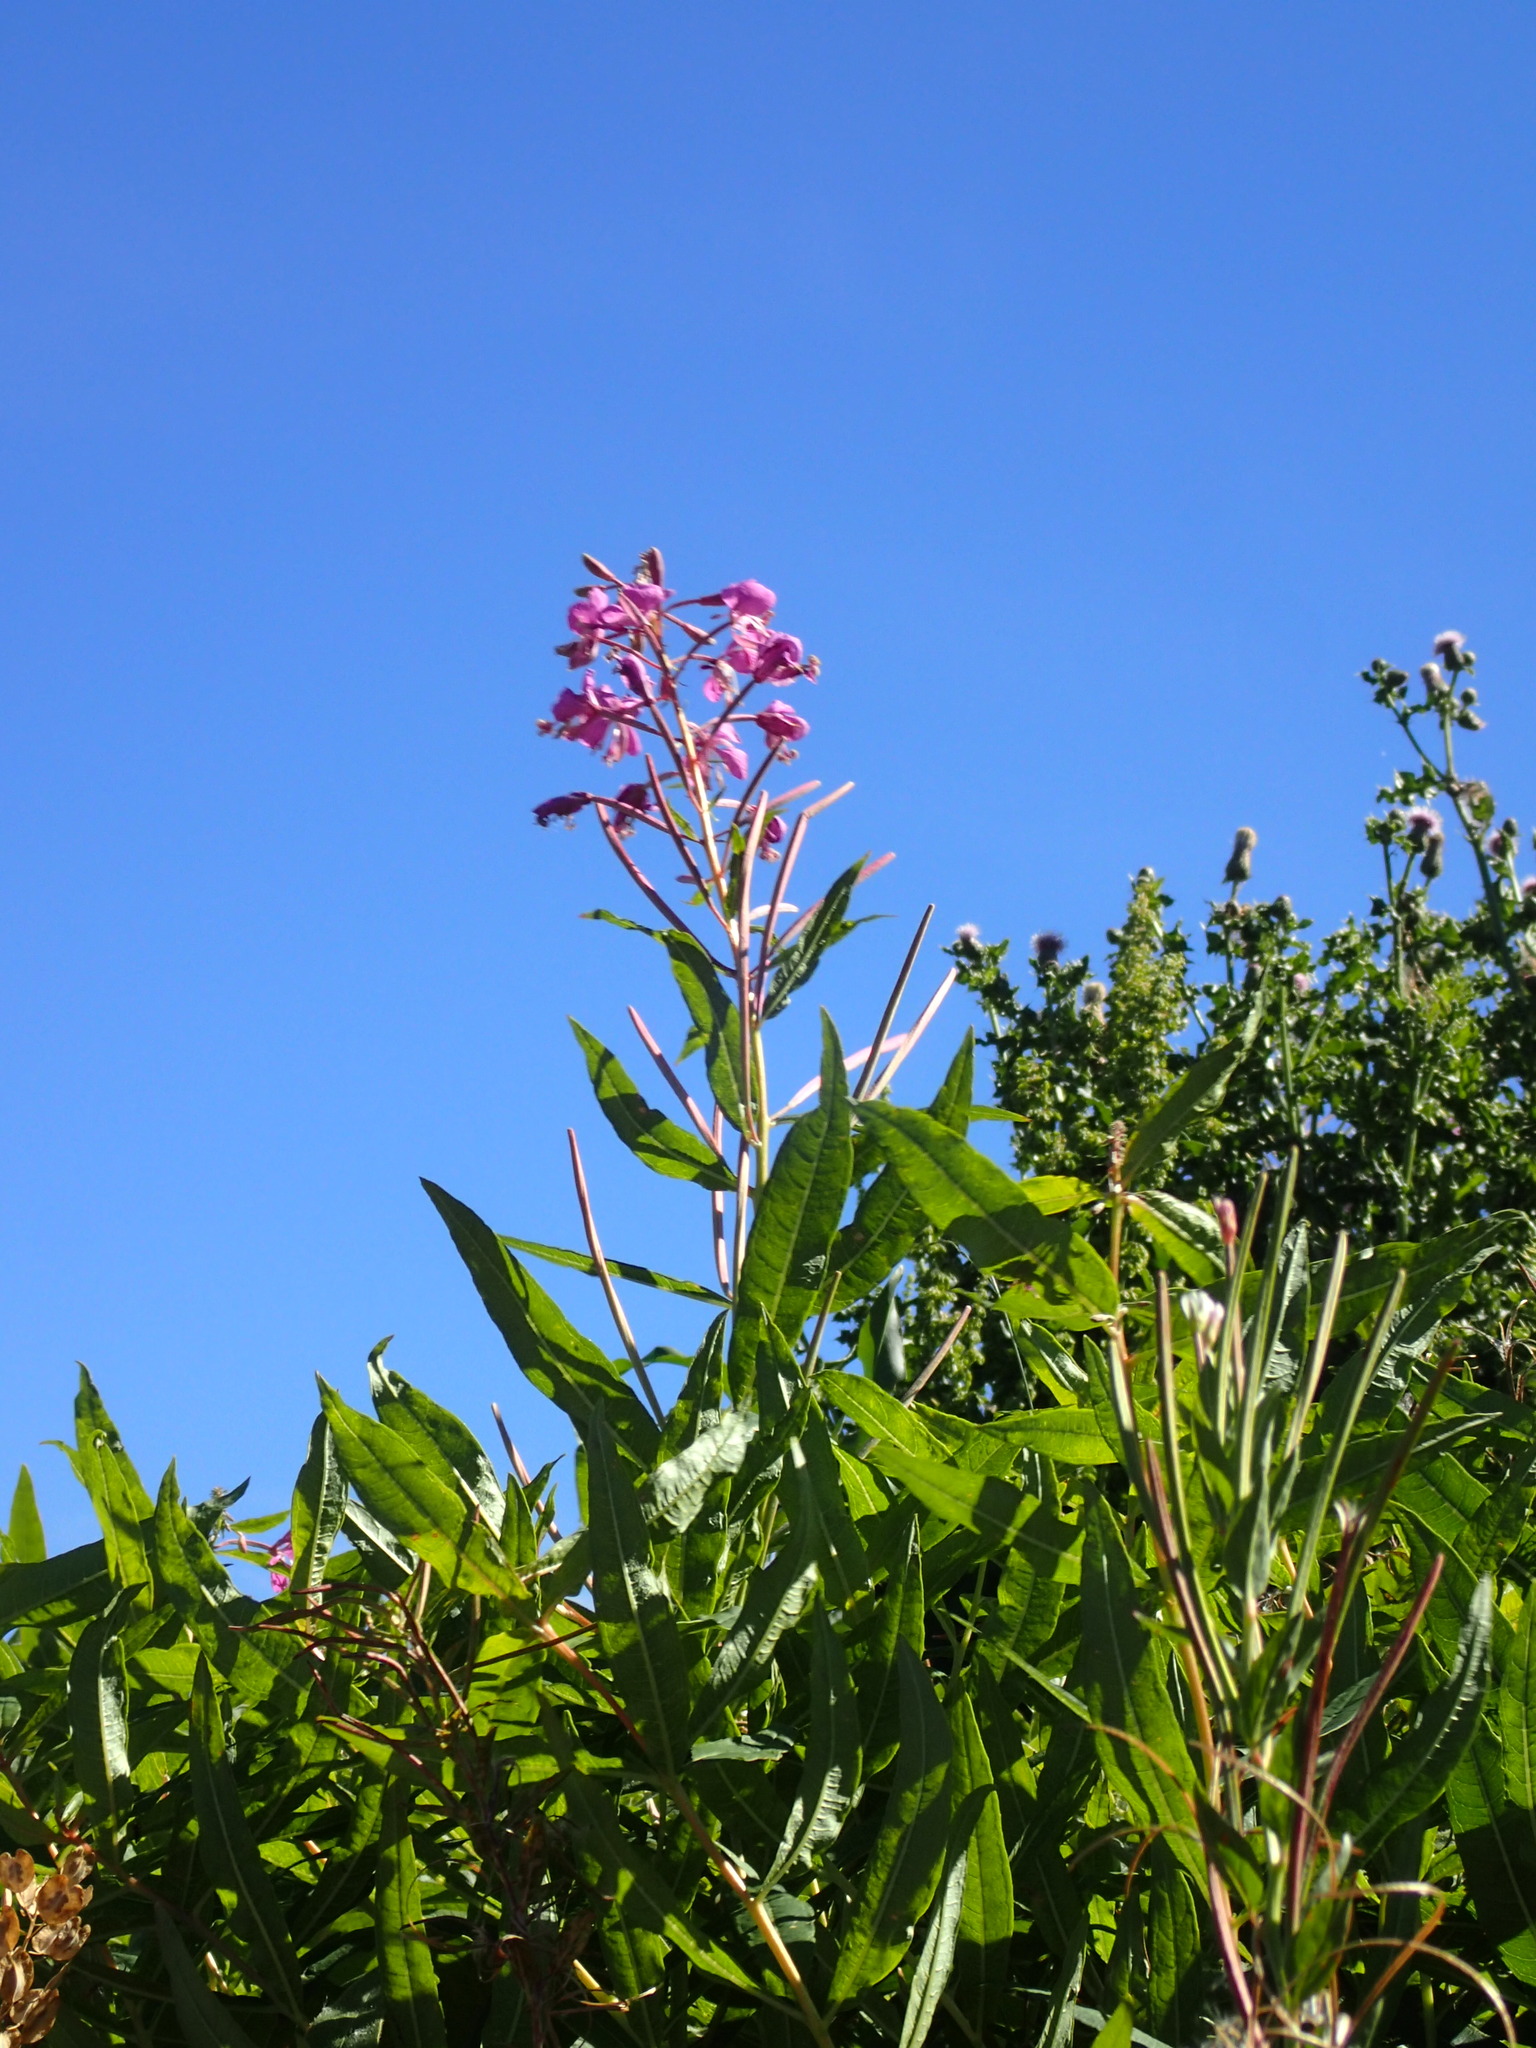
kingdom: Plantae
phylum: Tracheophyta
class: Magnoliopsida
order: Myrtales
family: Onagraceae
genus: Chamaenerion
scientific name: Chamaenerion angustifolium
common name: Fireweed
